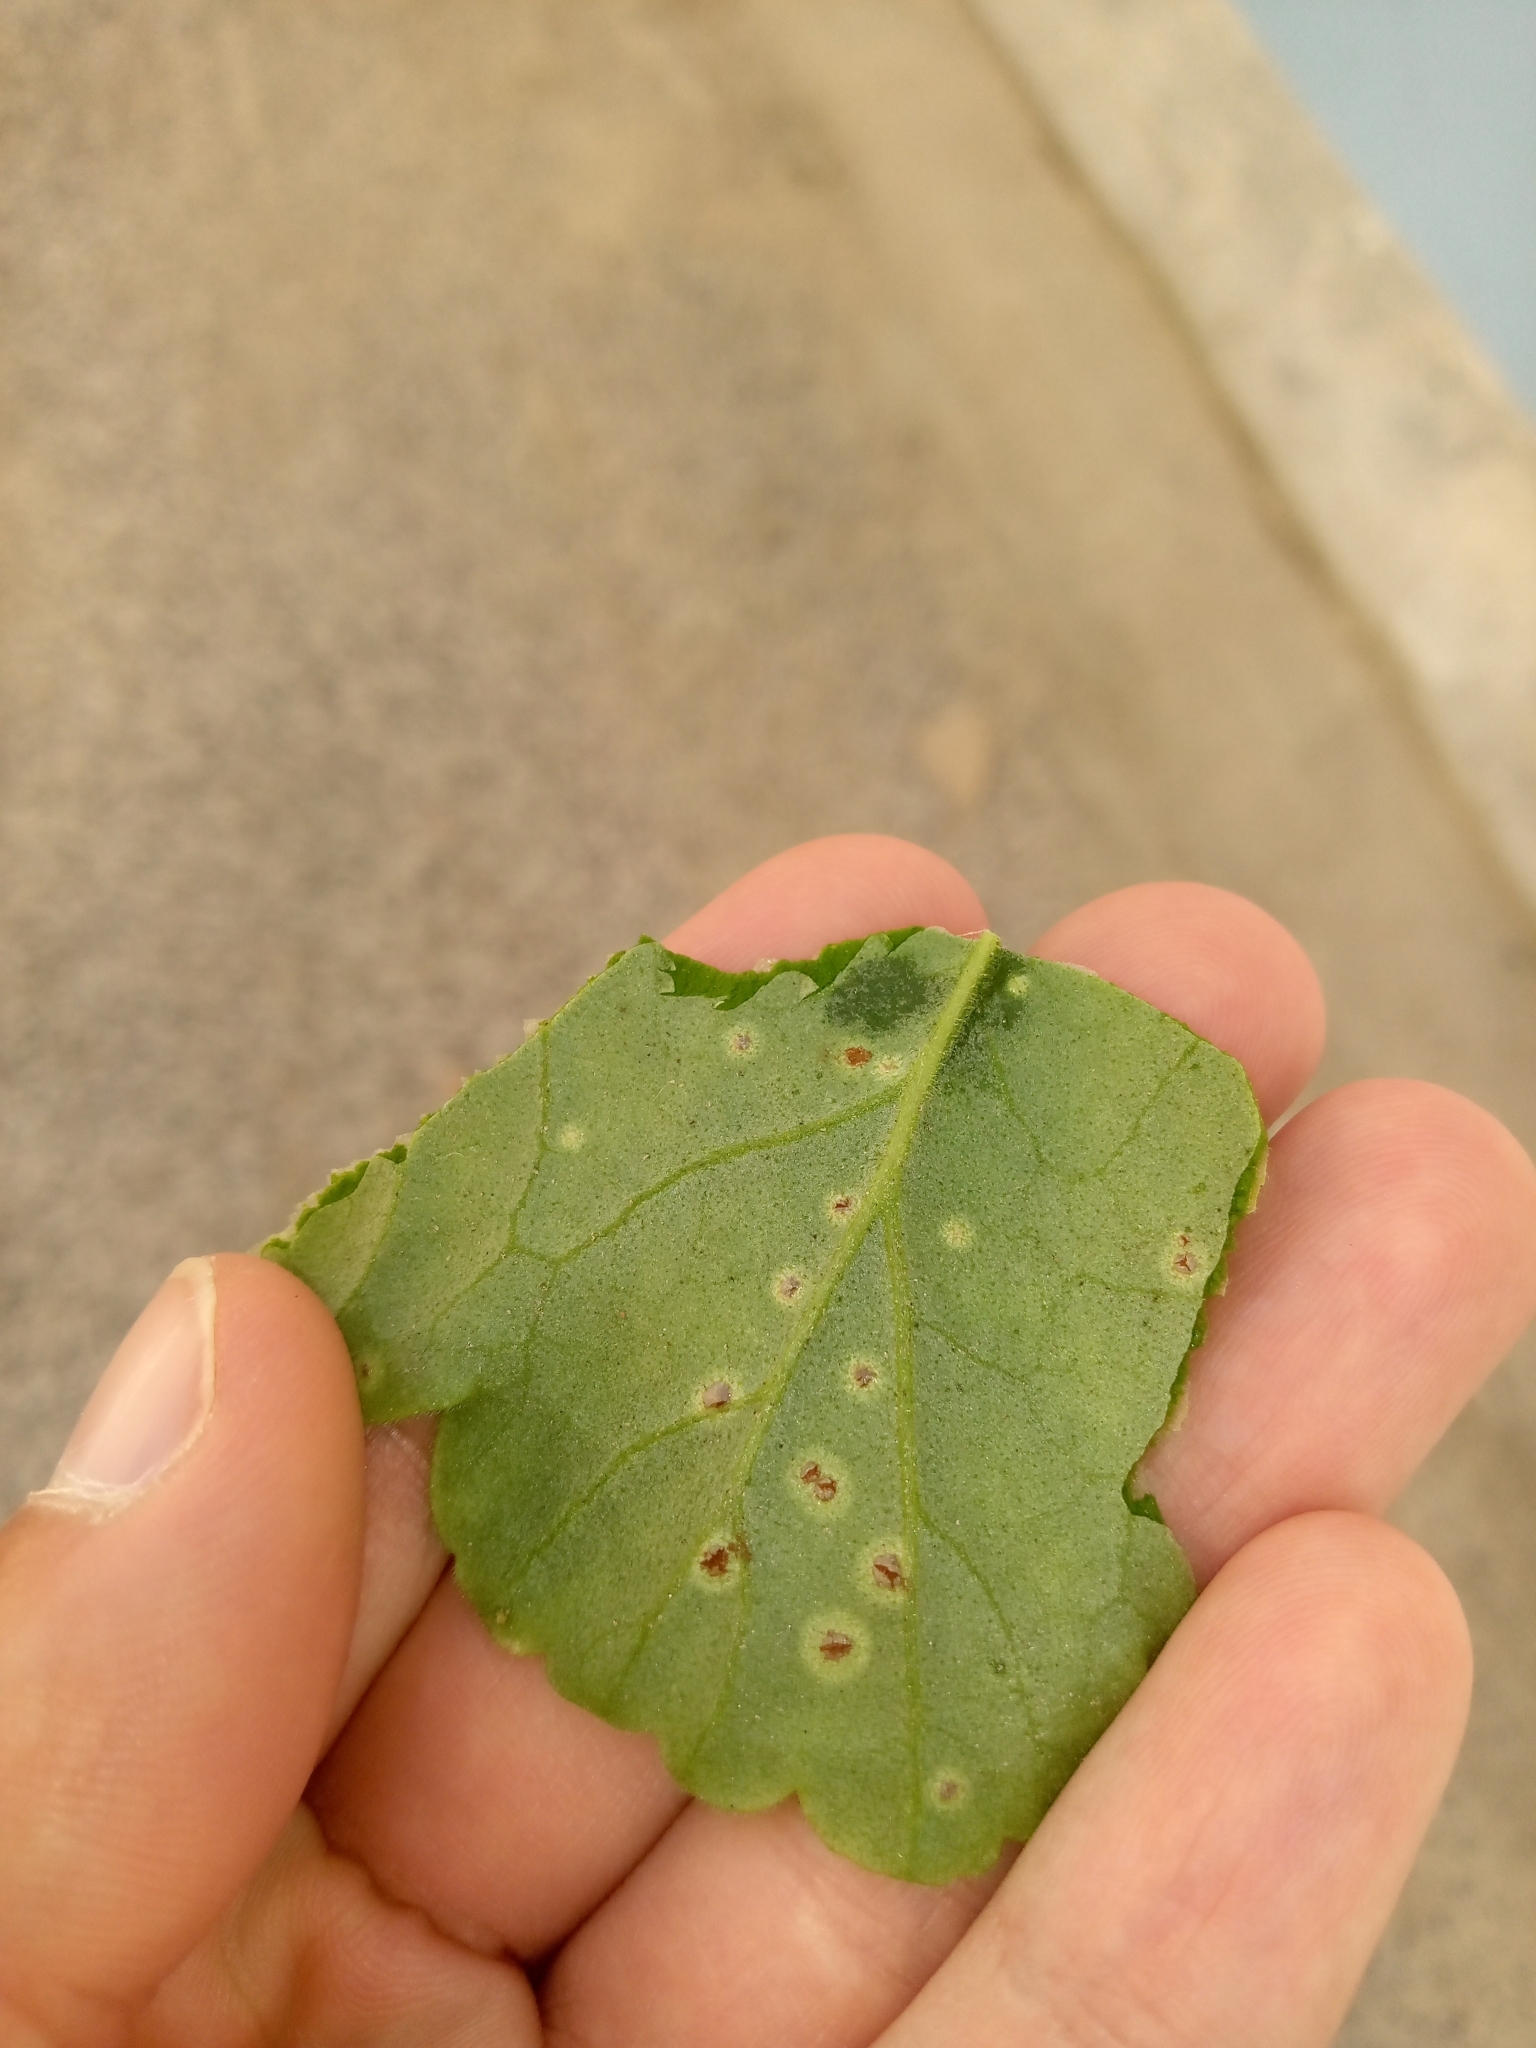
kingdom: Fungi
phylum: Basidiomycota
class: Pucciniomycetes
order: Pucciniales
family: Pucciniaceae
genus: Puccinia
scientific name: Puccinia pelargonii-zonalis
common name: Rust of pelargonium
